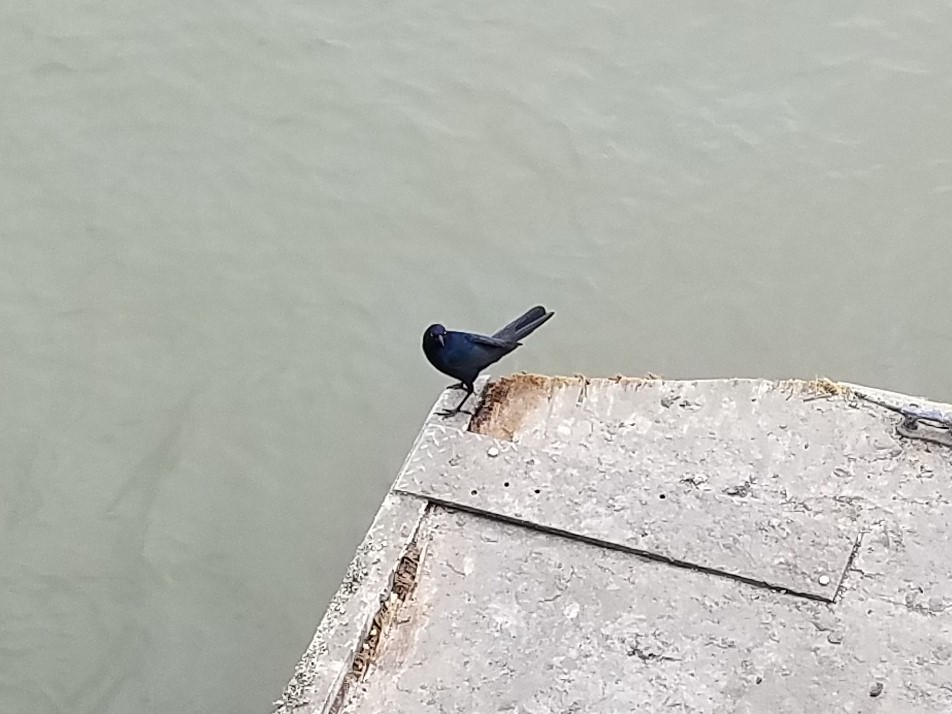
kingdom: Animalia
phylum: Chordata
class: Aves
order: Passeriformes
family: Icteridae
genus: Quiscalus
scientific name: Quiscalus major
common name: Boat-tailed grackle
